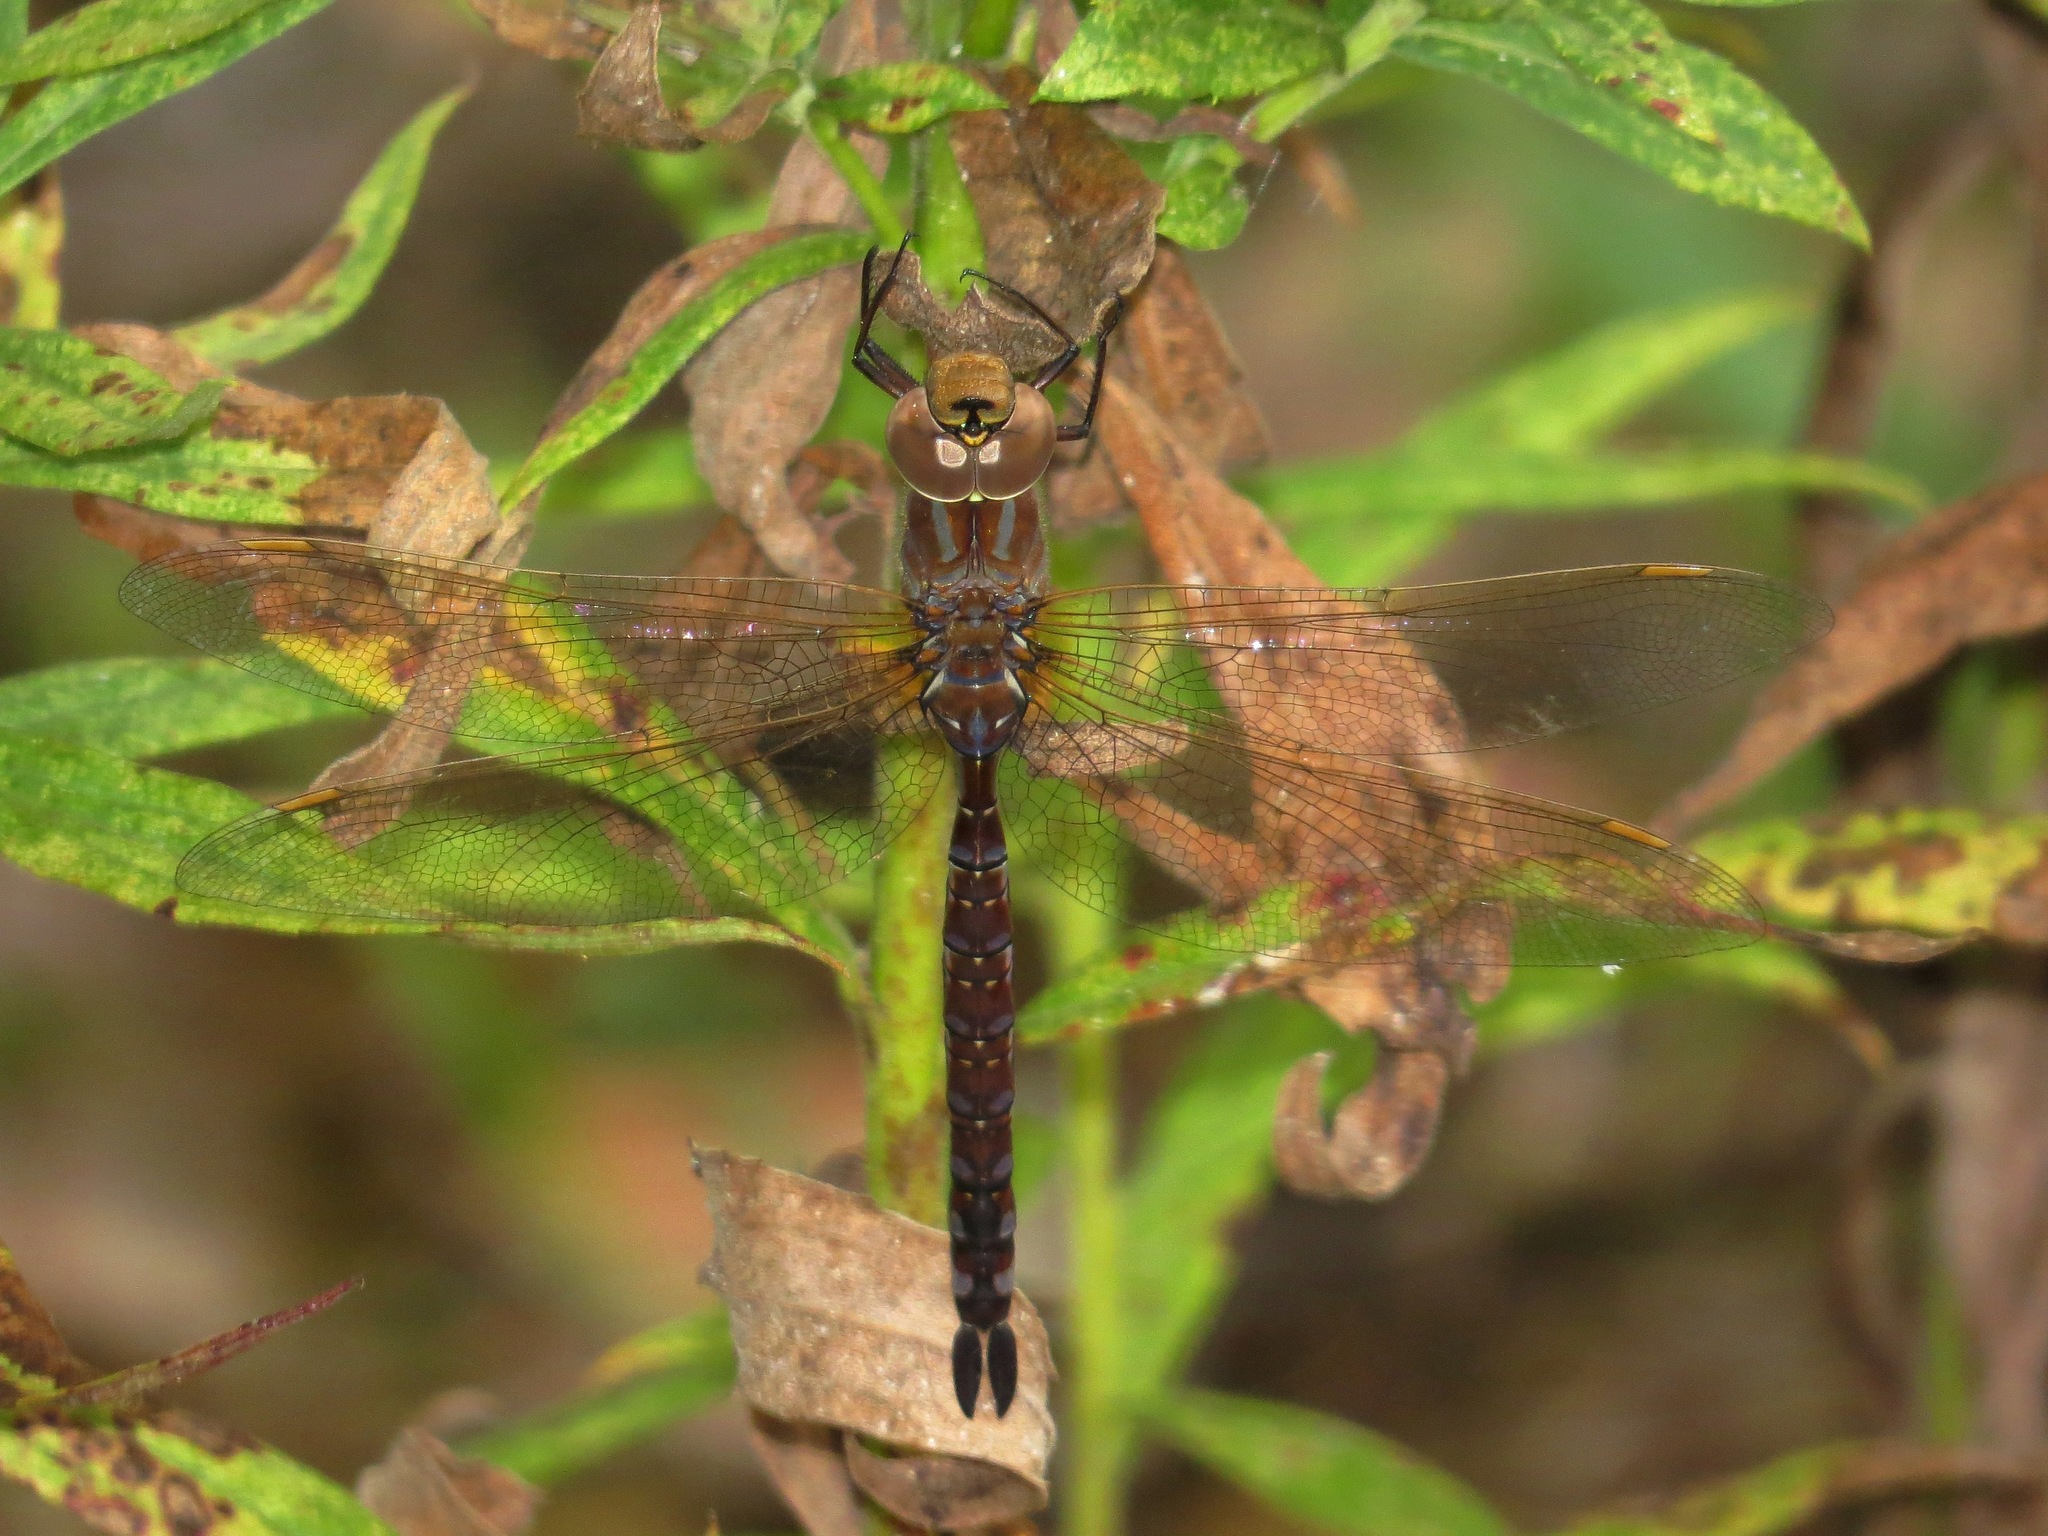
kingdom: Animalia
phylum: Arthropoda
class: Insecta
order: Odonata
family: Aeshnidae
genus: Aeshna
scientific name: Aeshna constricta
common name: Lance-tipped darner
